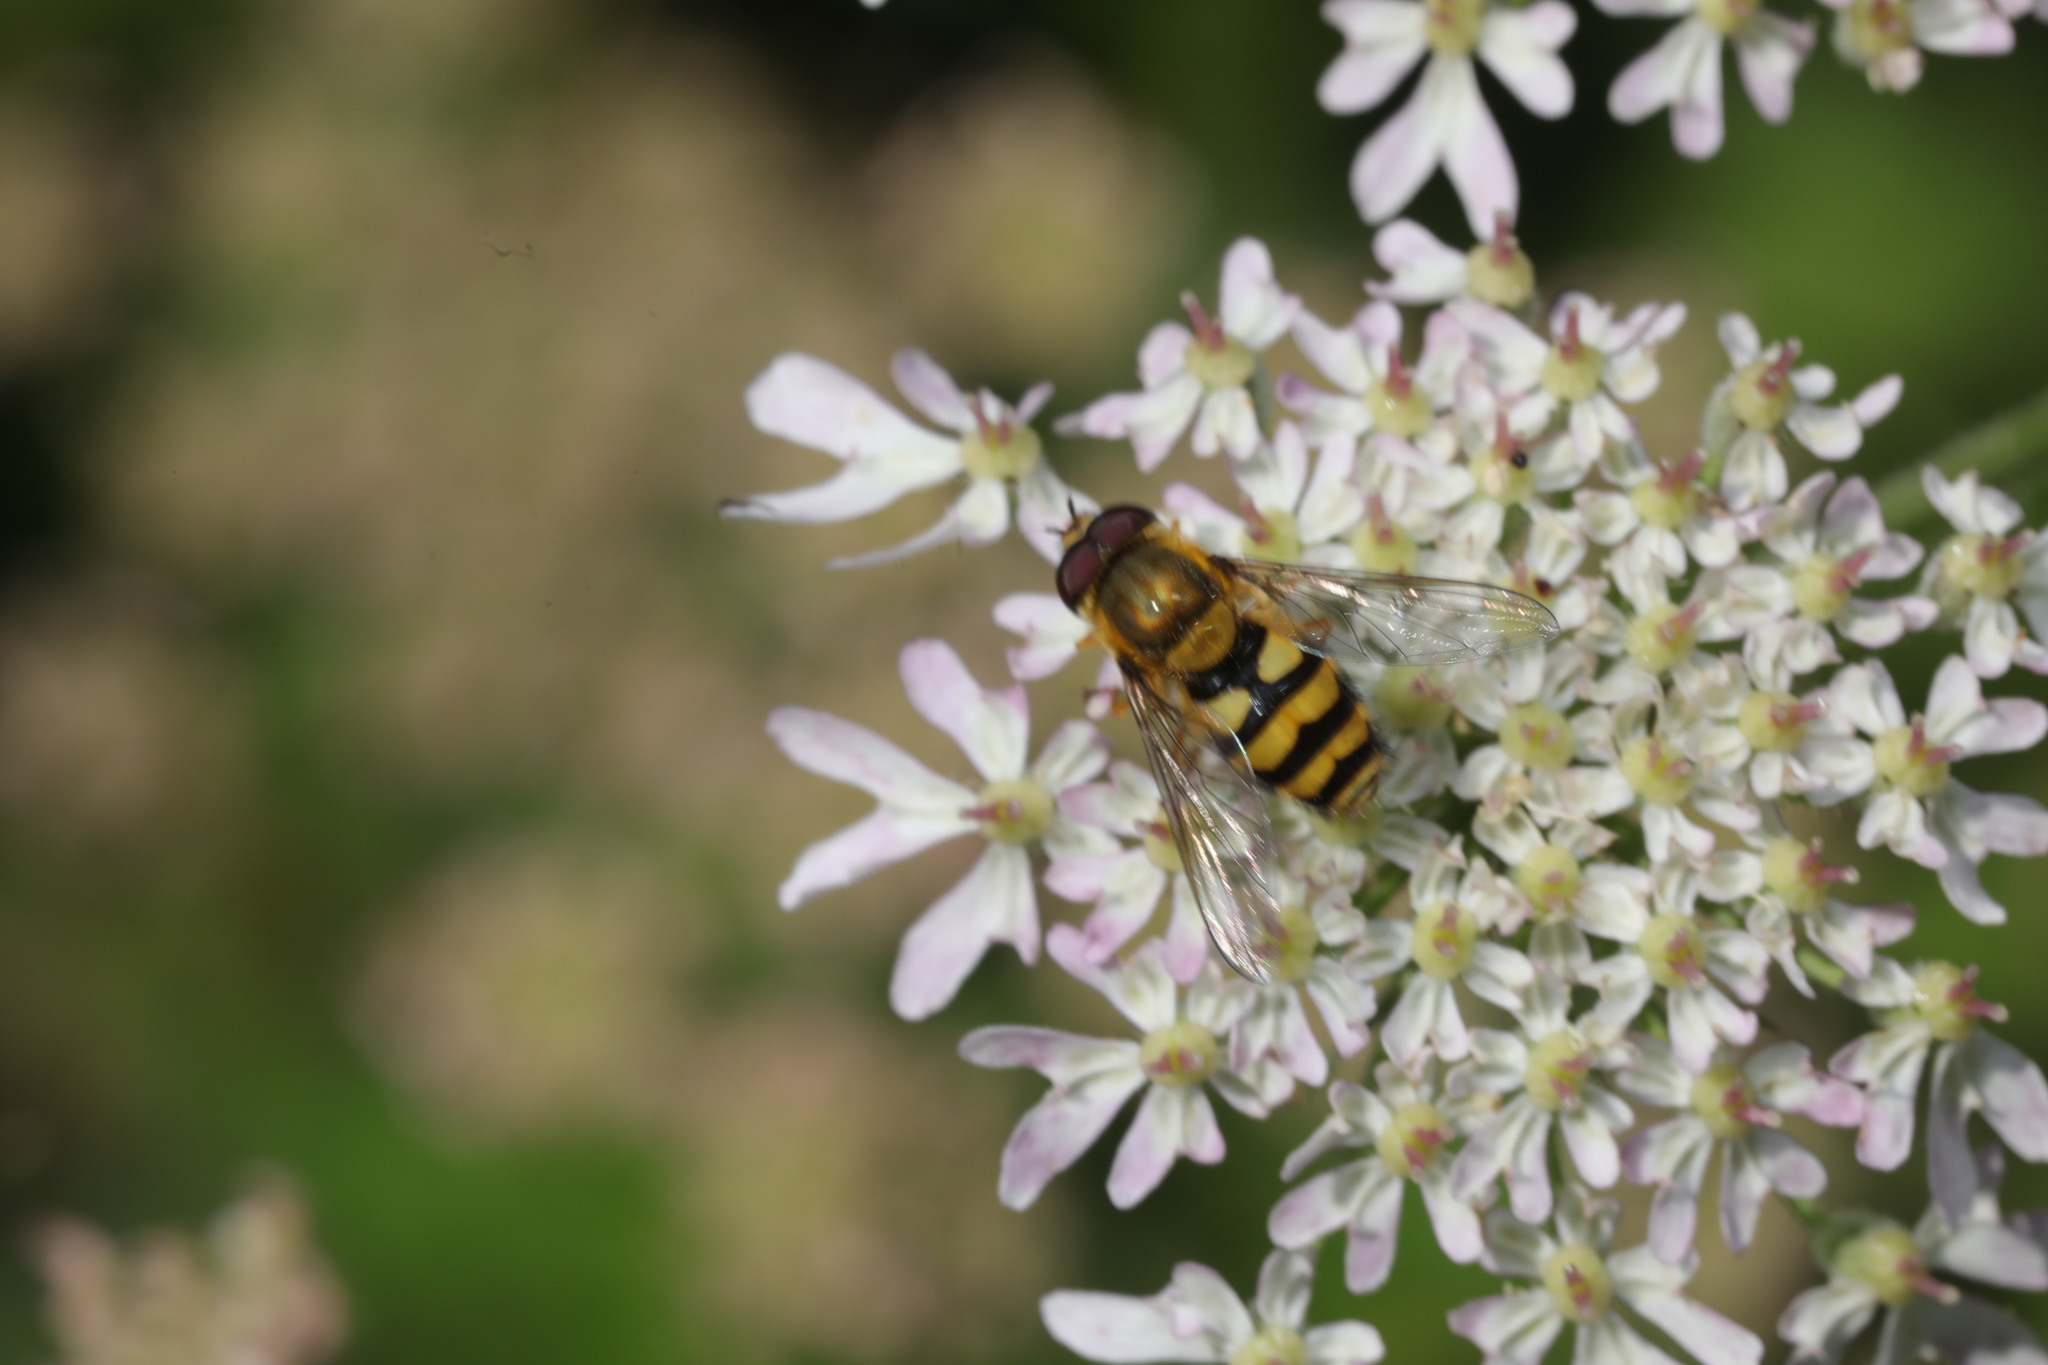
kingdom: Animalia
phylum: Arthropoda
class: Insecta
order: Diptera
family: Syrphidae
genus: Syrphus
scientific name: Syrphus
